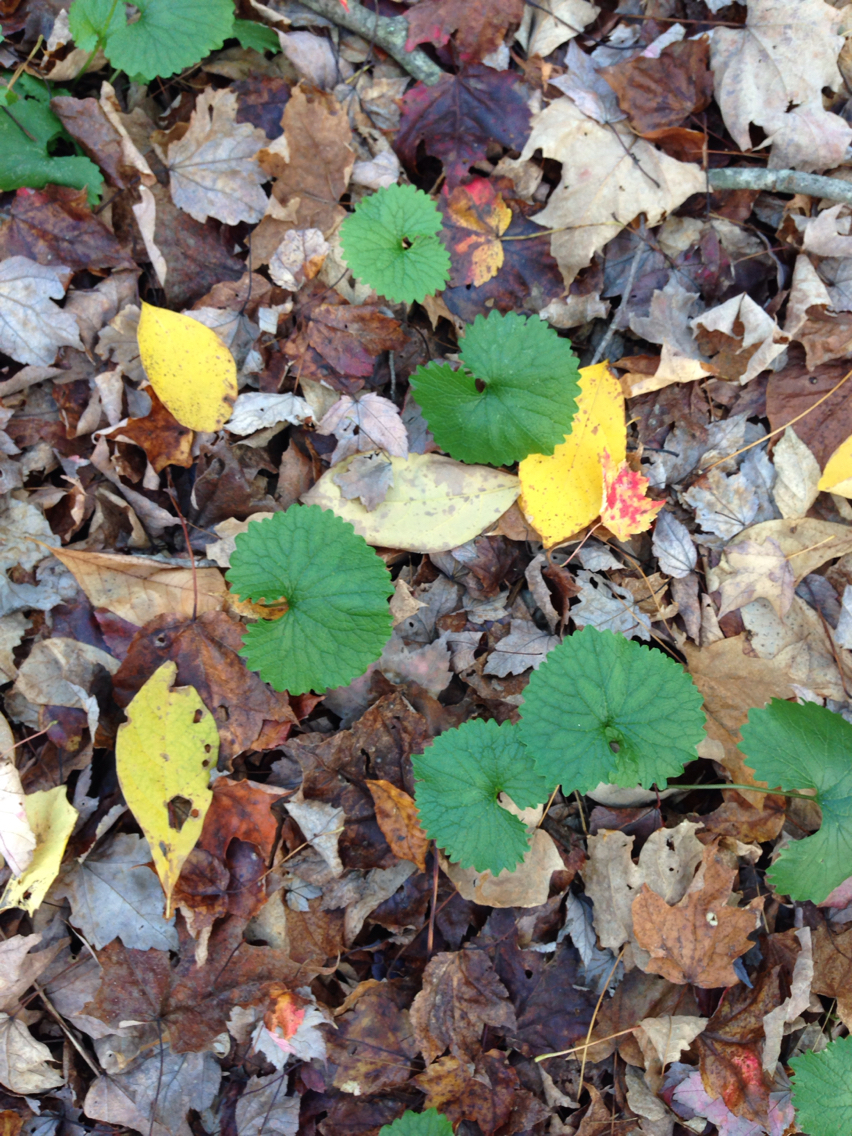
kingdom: Plantae
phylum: Tracheophyta
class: Magnoliopsida
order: Brassicales
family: Brassicaceae
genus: Alliaria
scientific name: Alliaria petiolata
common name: Garlic mustard
